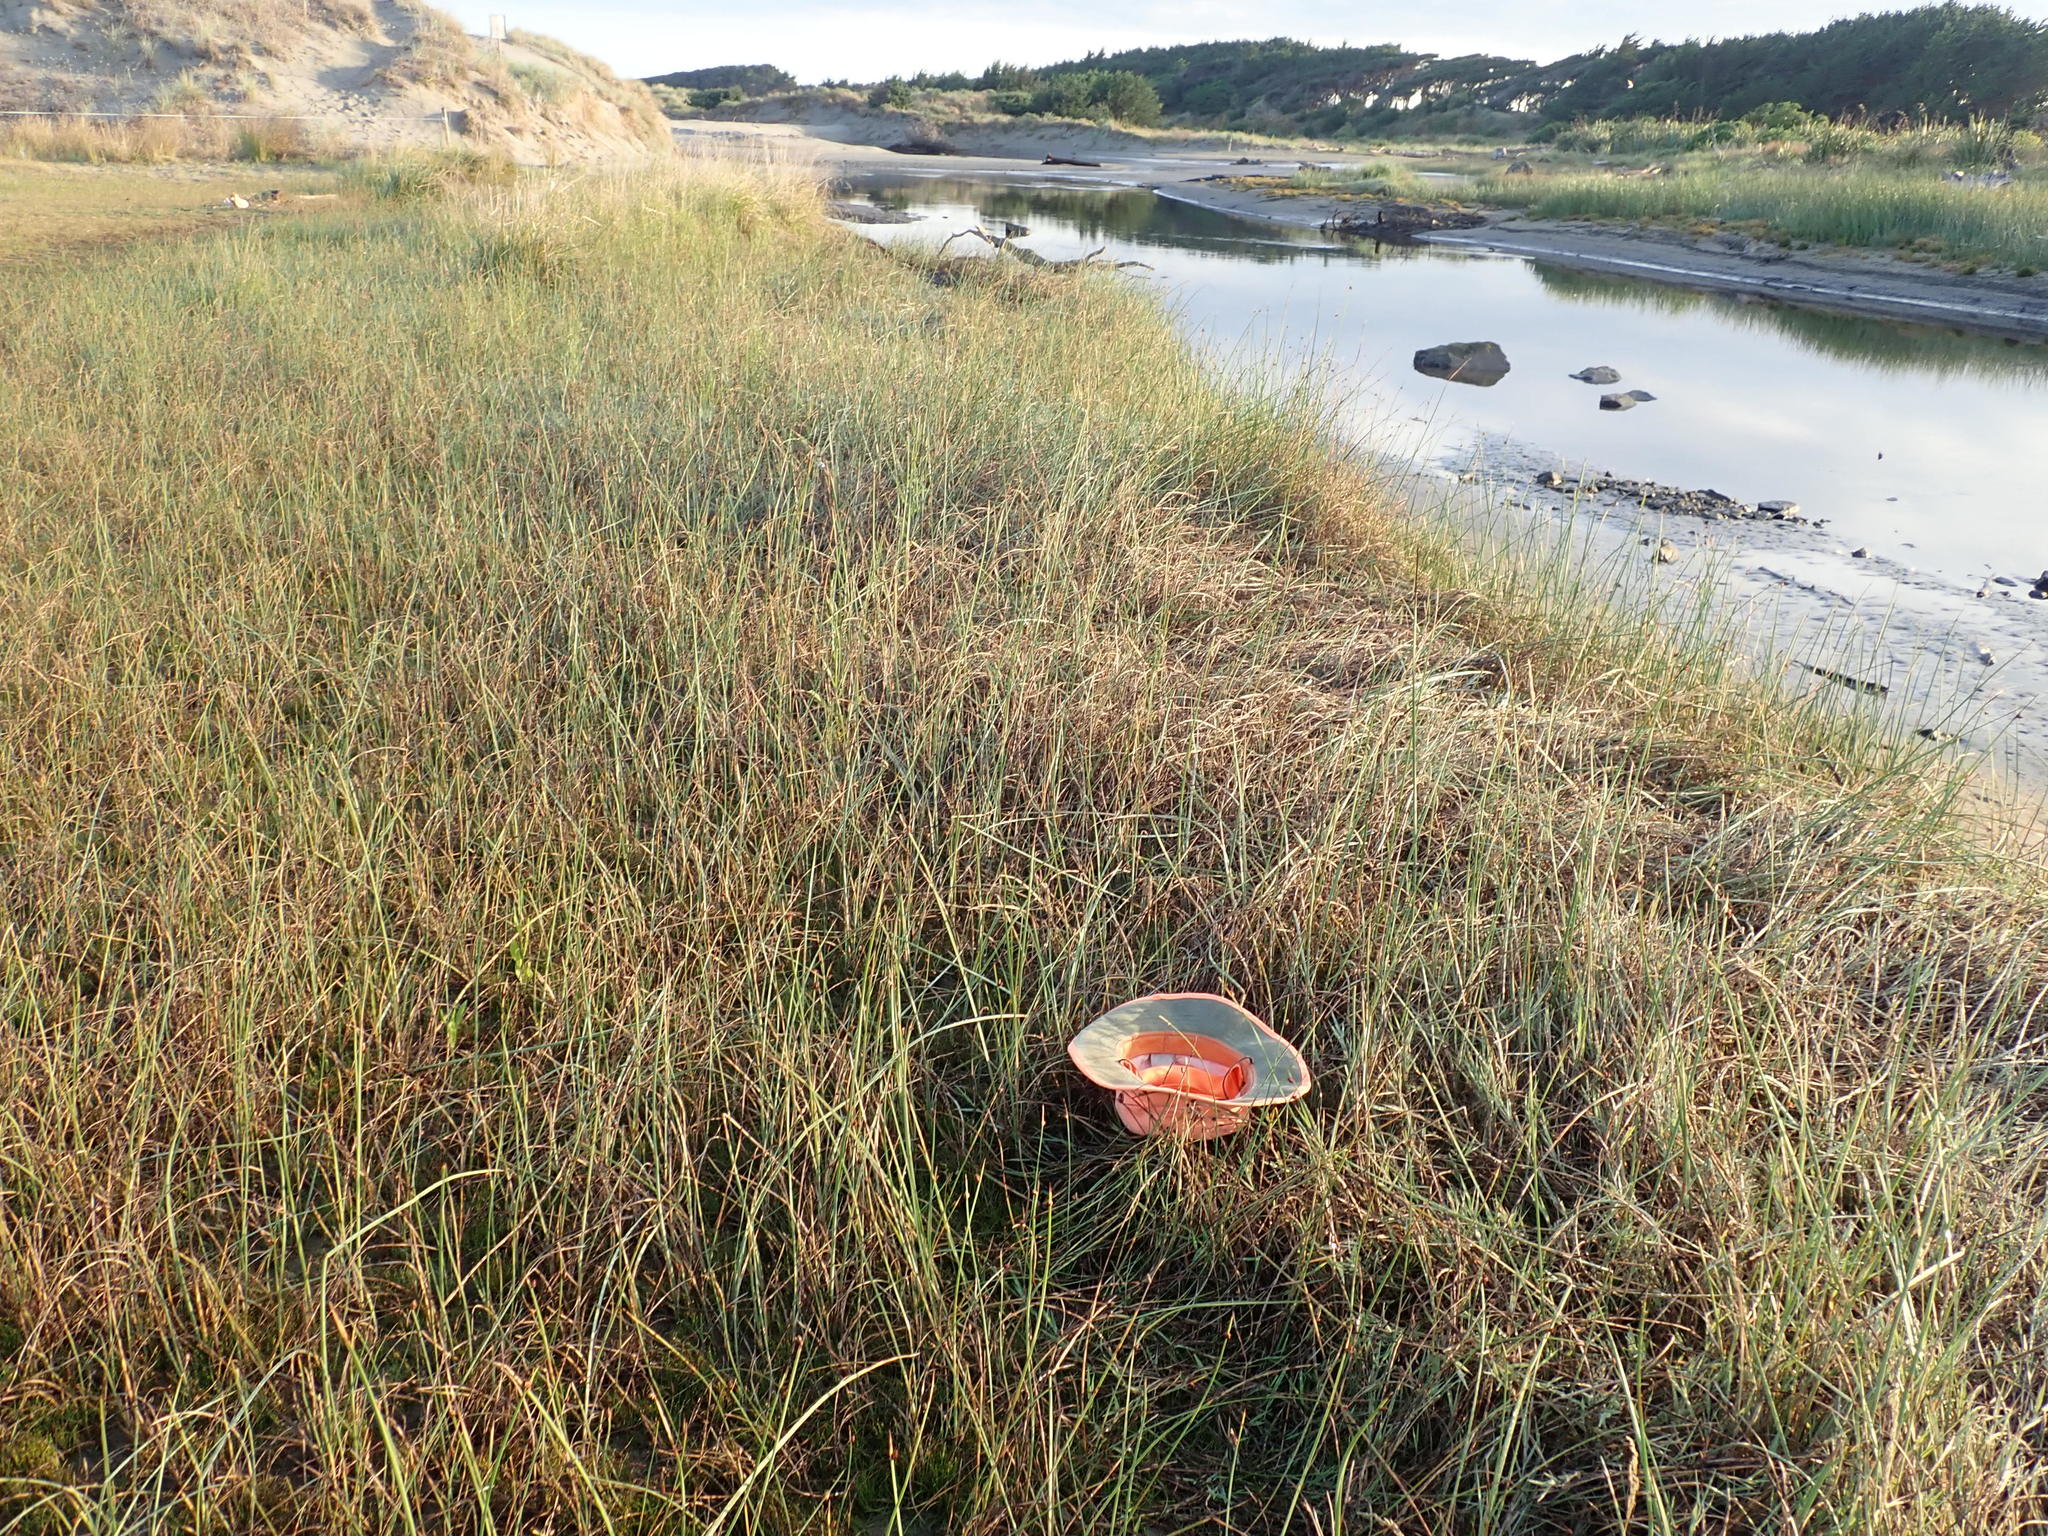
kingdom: Plantae
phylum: Tracheophyta
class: Liliopsida
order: Alismatales
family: Juncaginaceae
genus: Triglochin
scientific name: Triglochin striata
